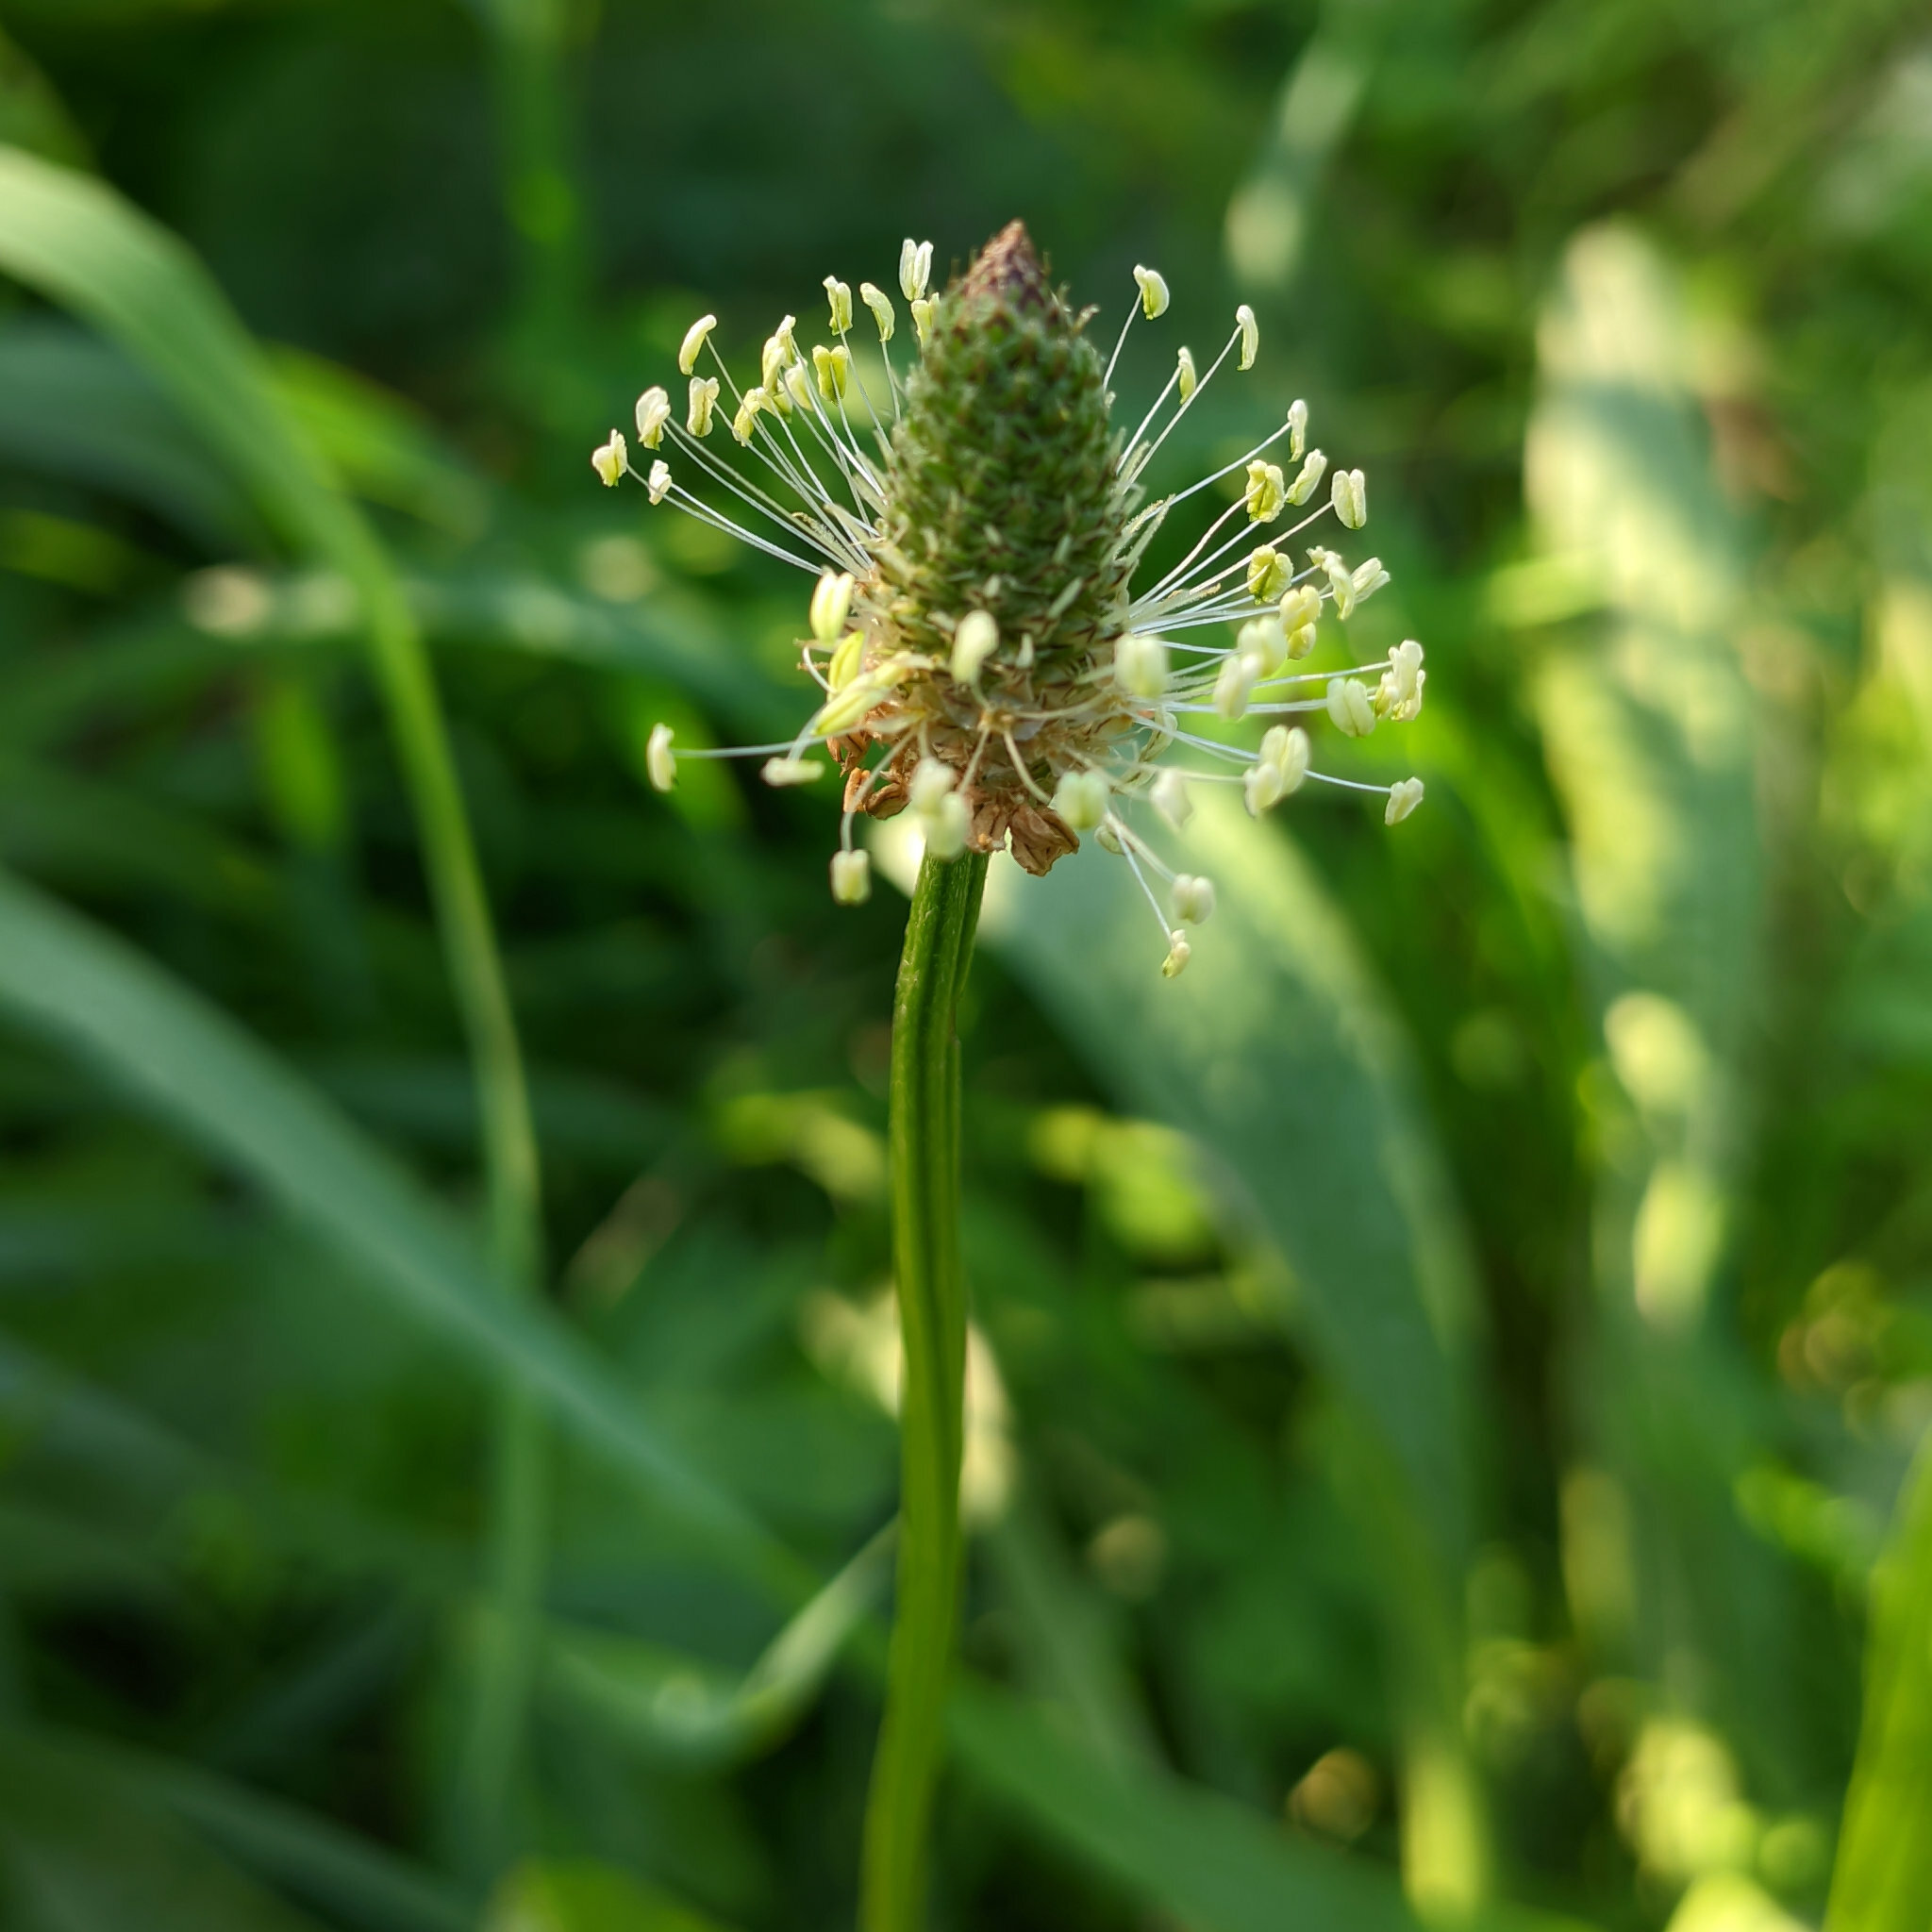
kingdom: Plantae
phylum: Tracheophyta
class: Magnoliopsida
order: Lamiales
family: Plantaginaceae
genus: Plantago
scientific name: Plantago lanceolata
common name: Ribwort plantain
